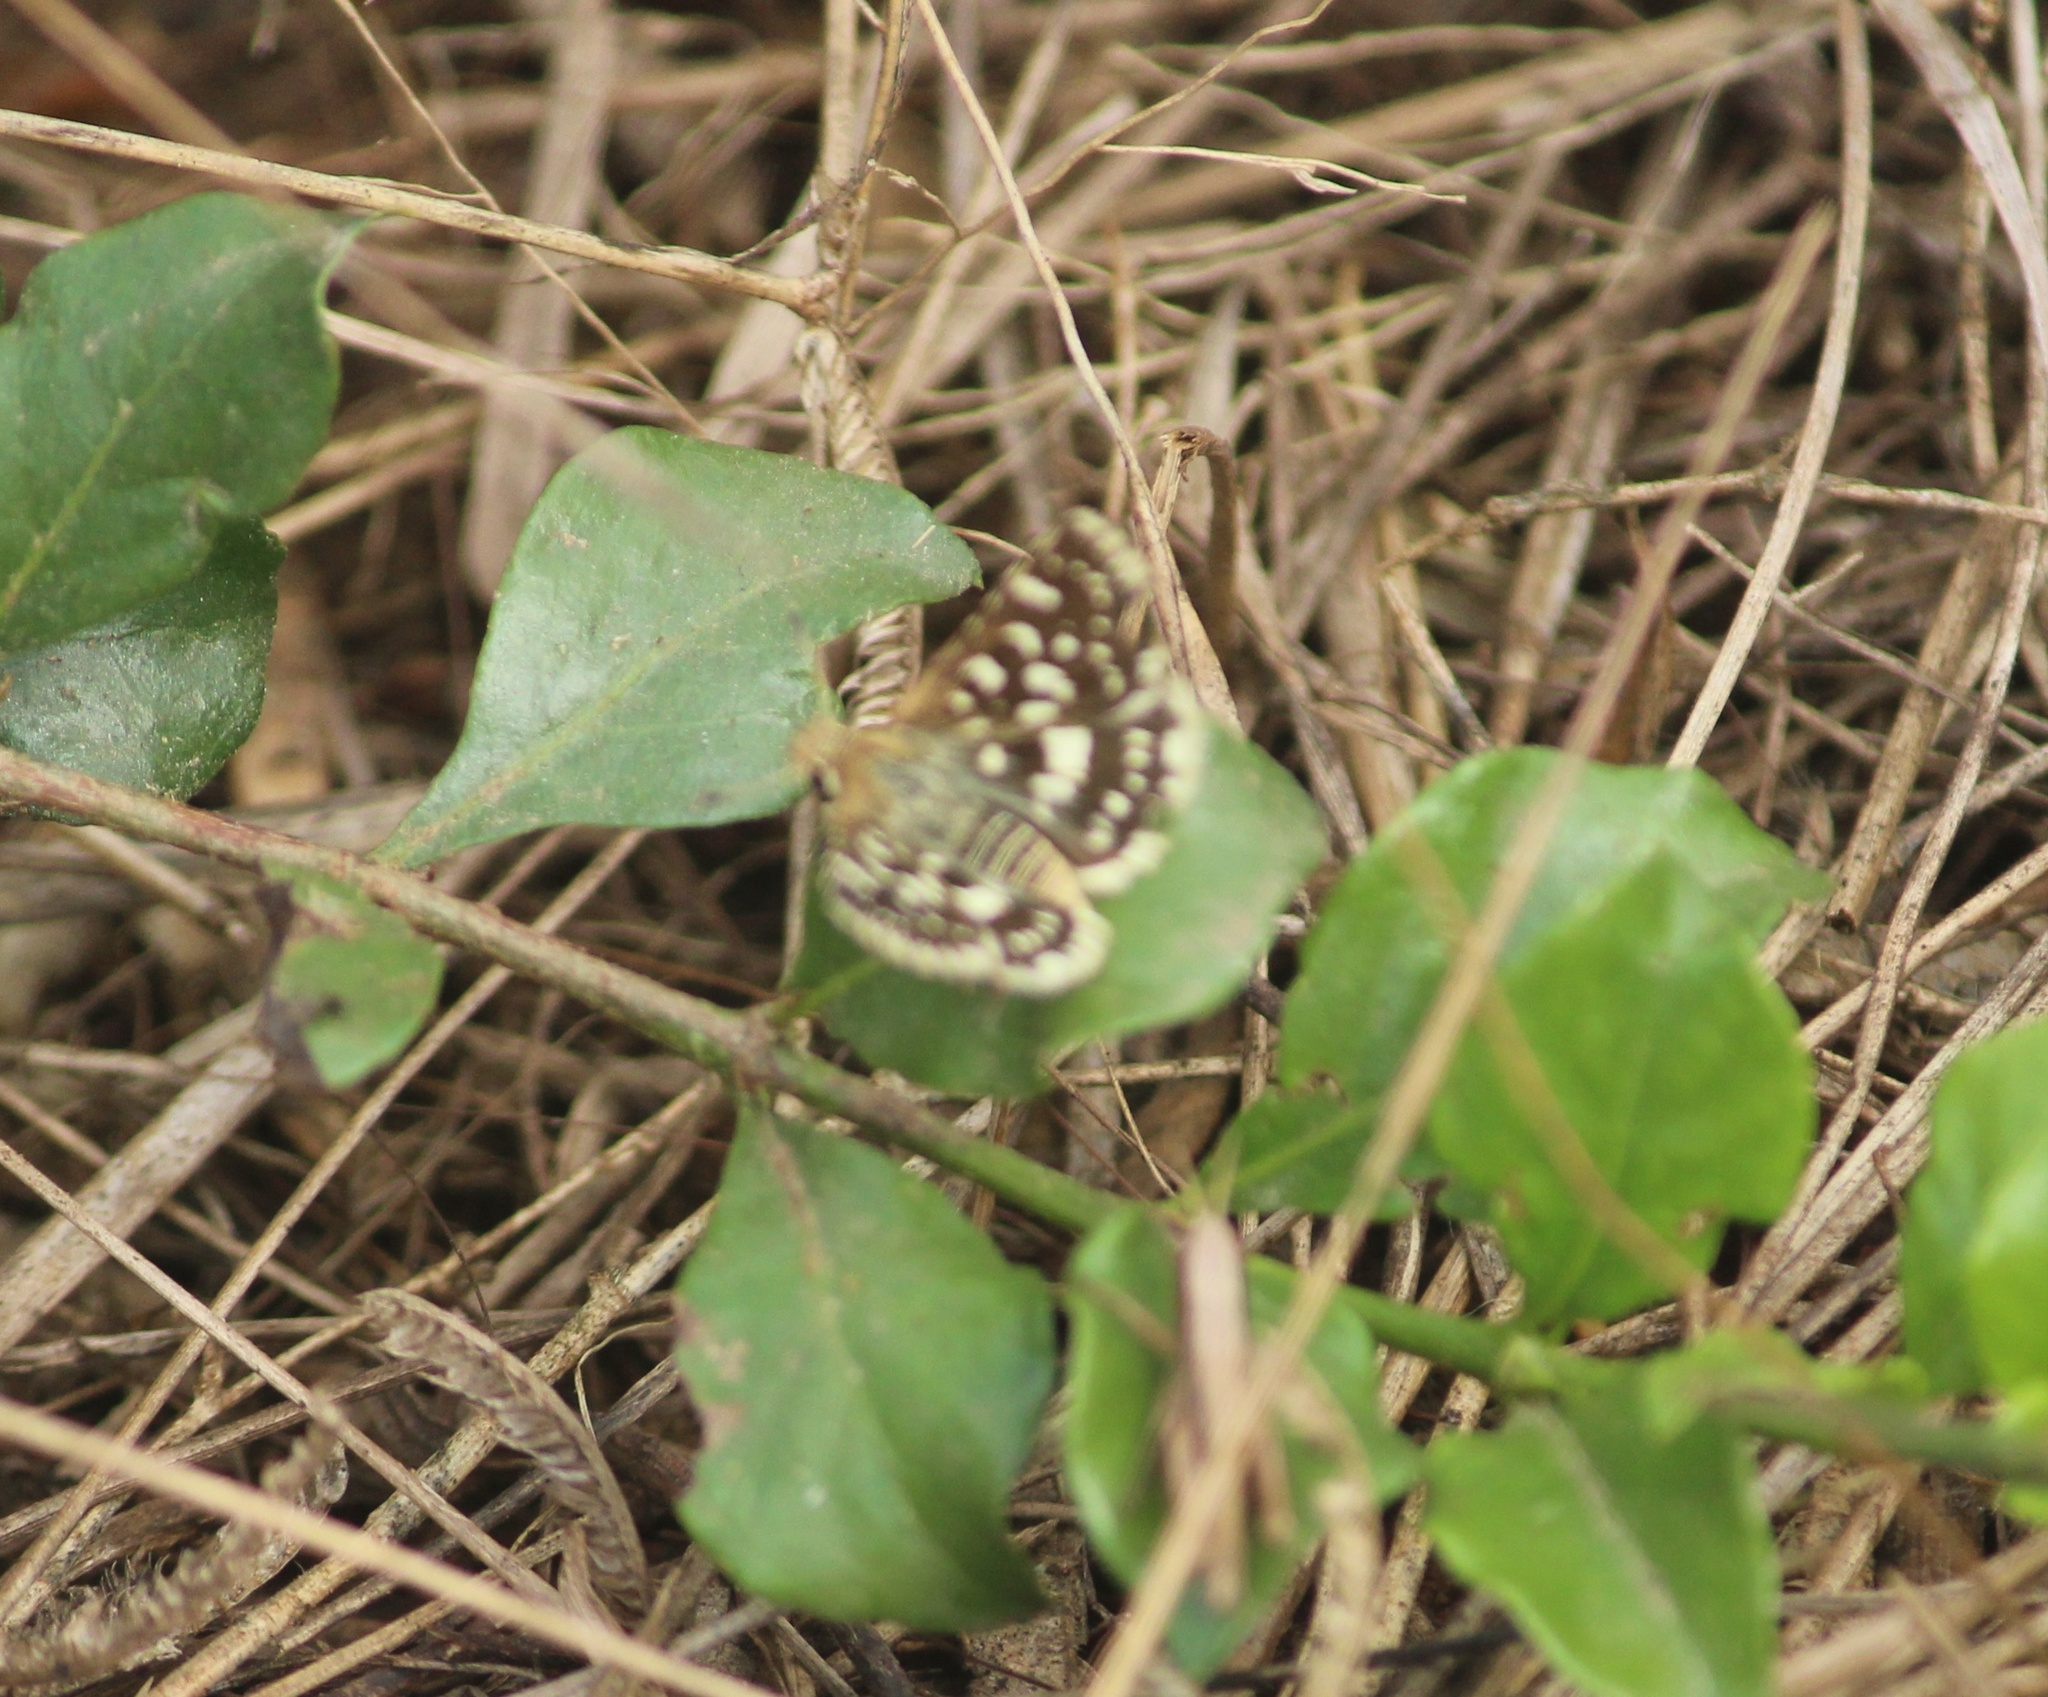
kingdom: Animalia
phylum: Arthropoda
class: Insecta
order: Lepidoptera
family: Hesperiidae
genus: Spialia
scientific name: Spialia galba
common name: Indian skipper
